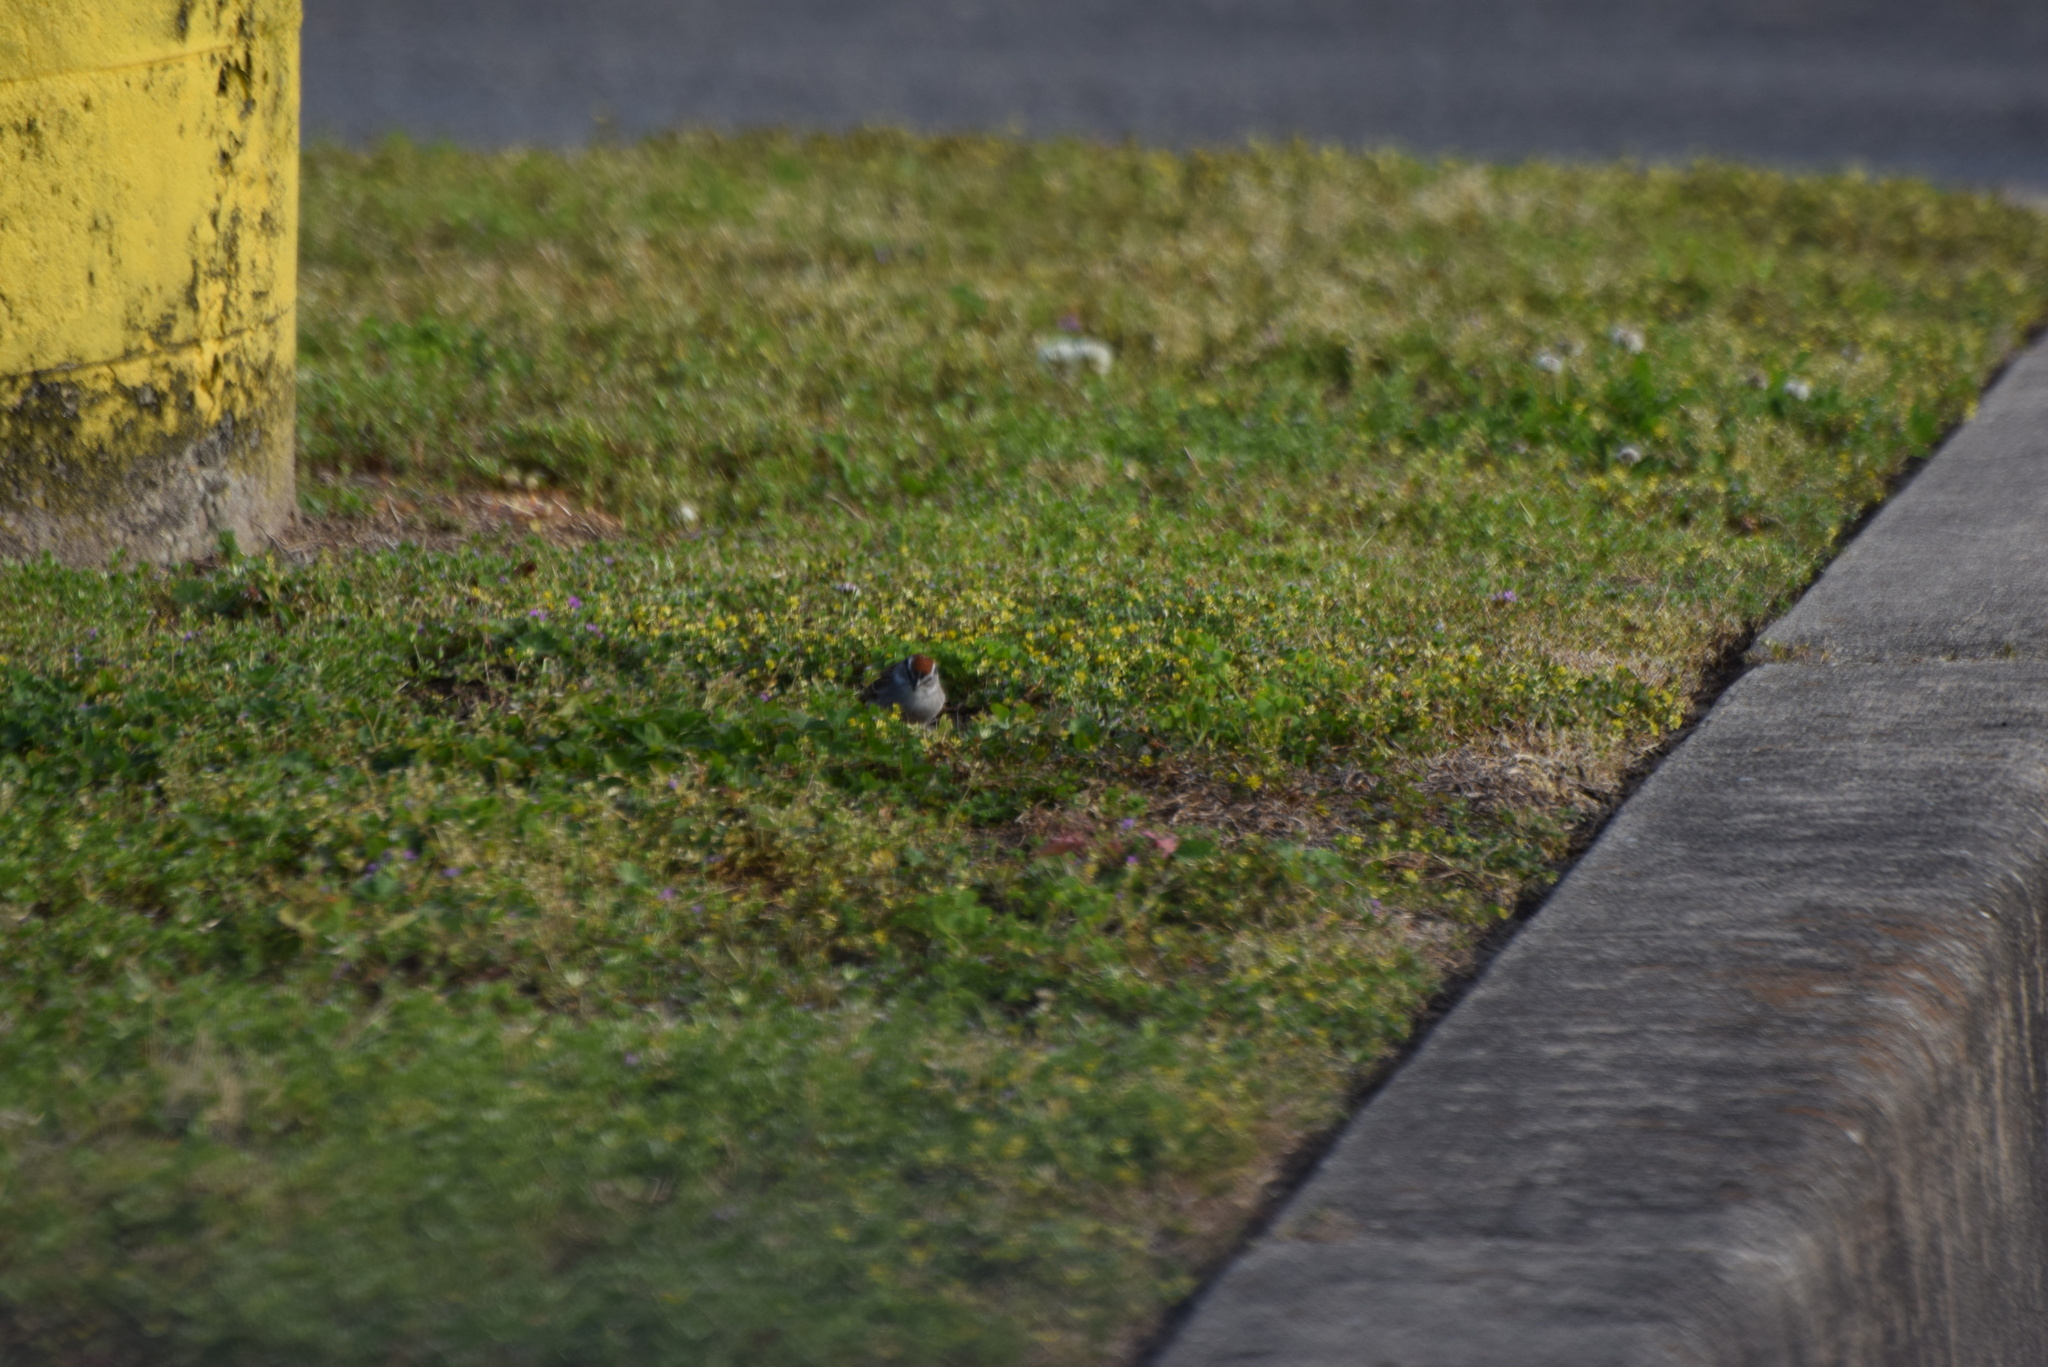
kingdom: Animalia
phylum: Chordata
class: Aves
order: Passeriformes
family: Passerellidae
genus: Spizella
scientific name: Spizella passerina
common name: Chipping sparrow
